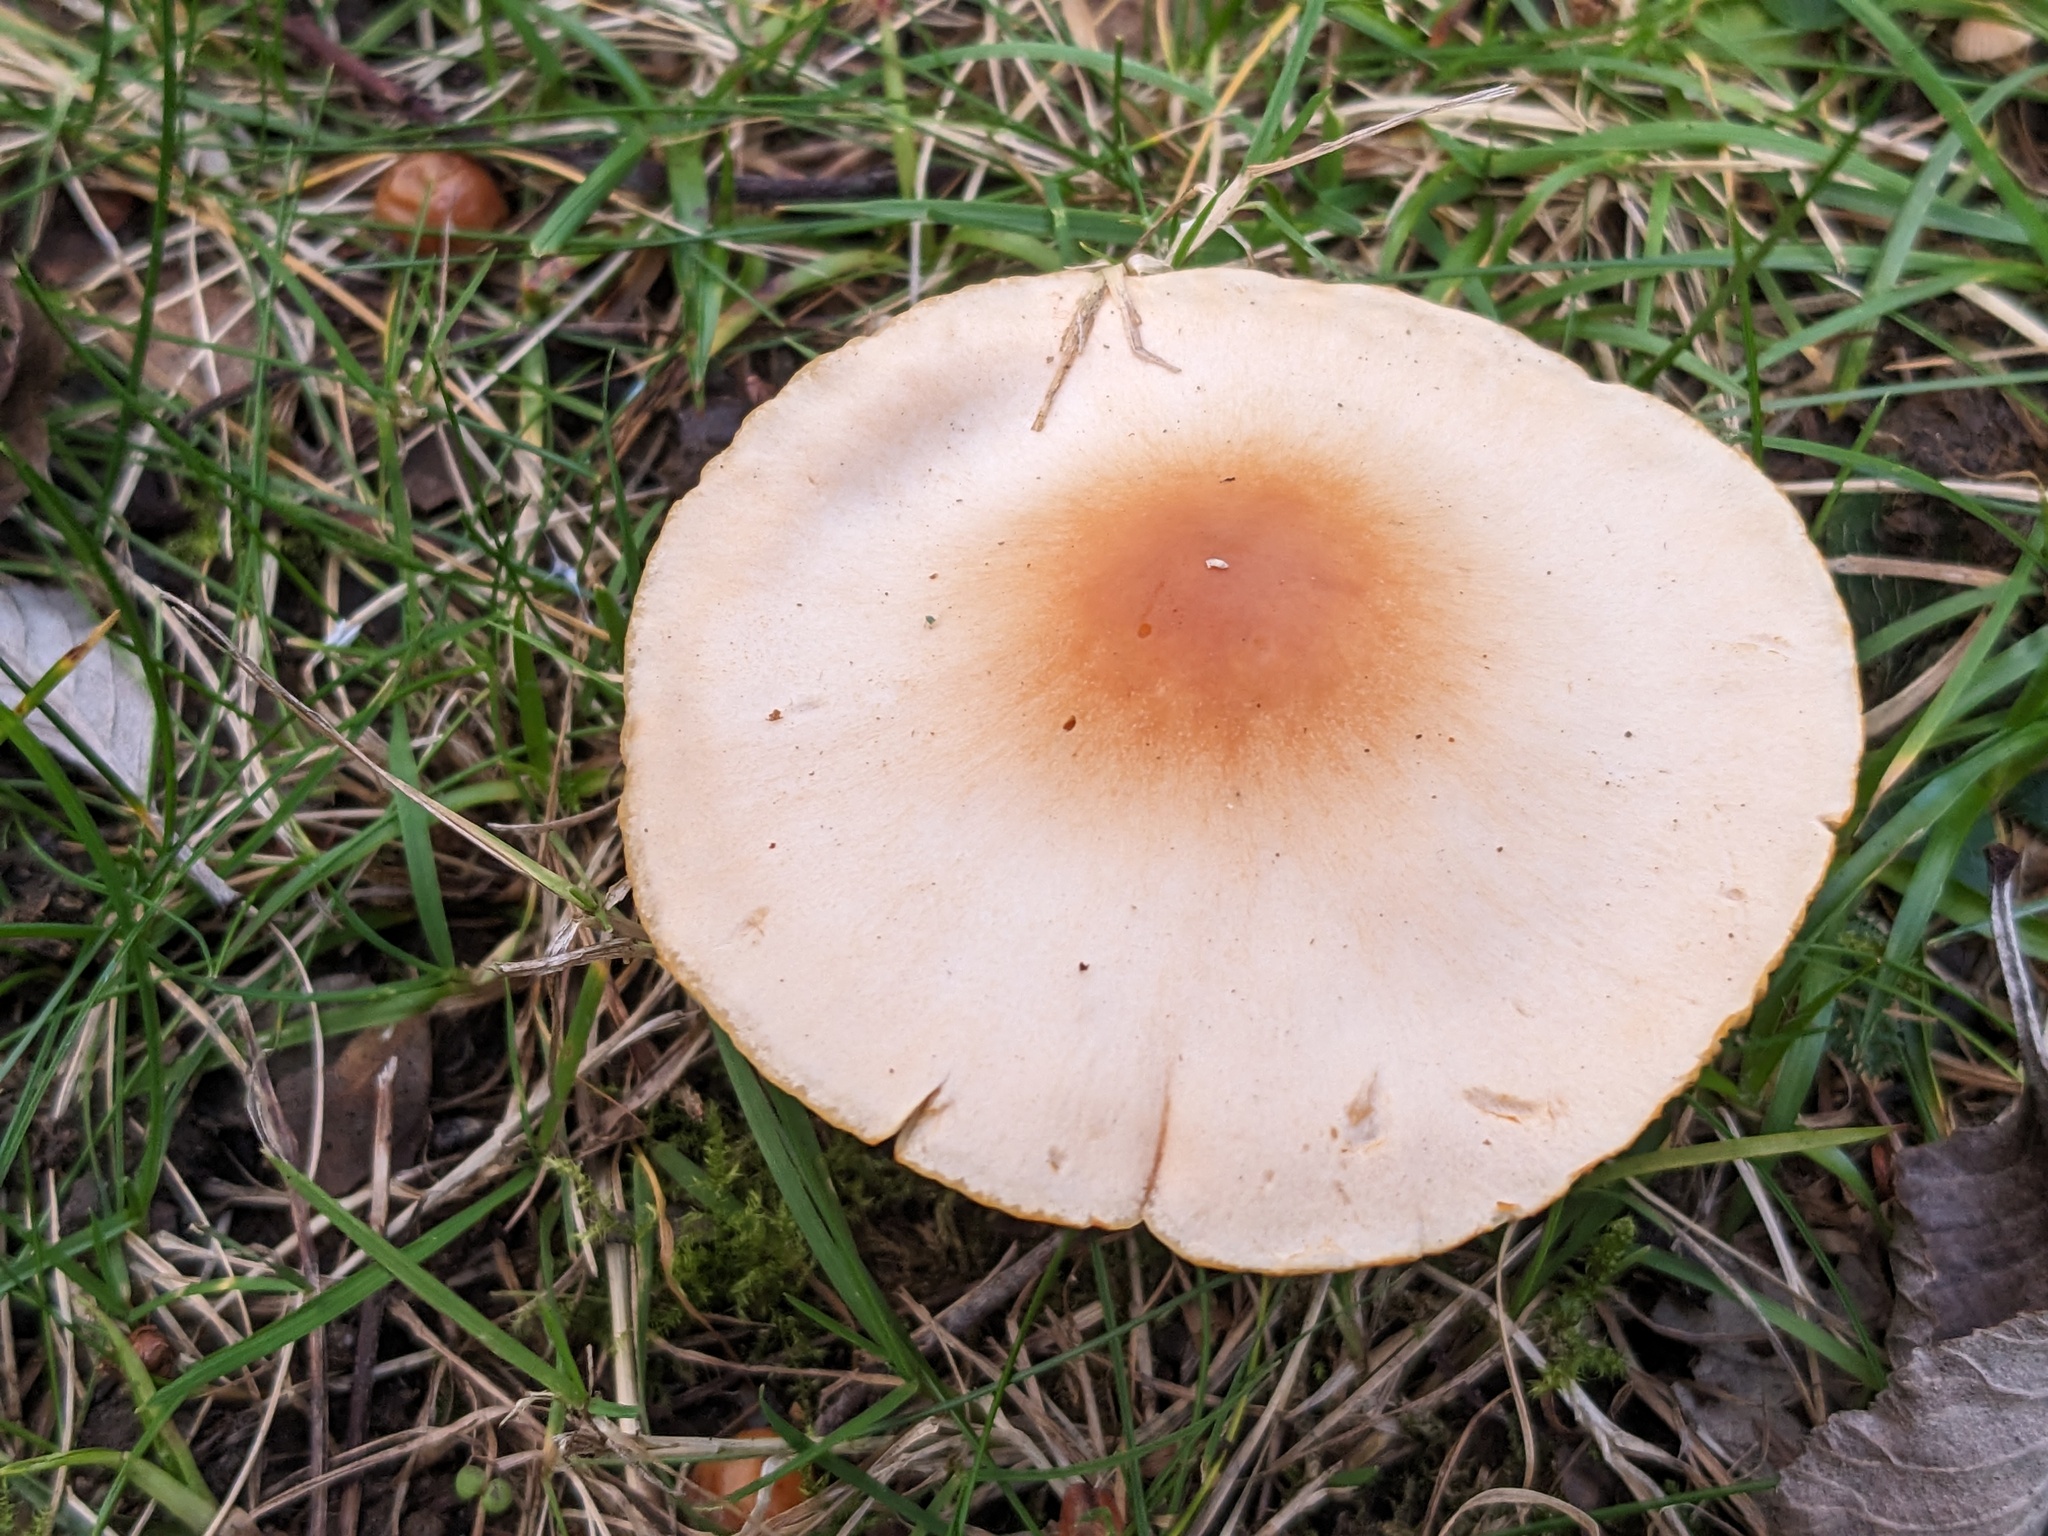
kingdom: Fungi
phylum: Basidiomycota
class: Agaricomycetes
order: Agaricales
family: Hygrophoraceae
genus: Cuphophyllus
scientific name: Cuphophyllus pratensis
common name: Meadow waxcap
